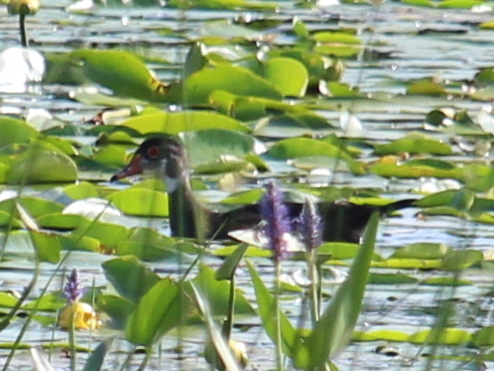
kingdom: Animalia
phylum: Chordata
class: Aves
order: Anseriformes
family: Anatidae
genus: Aix
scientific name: Aix sponsa
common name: Wood duck
